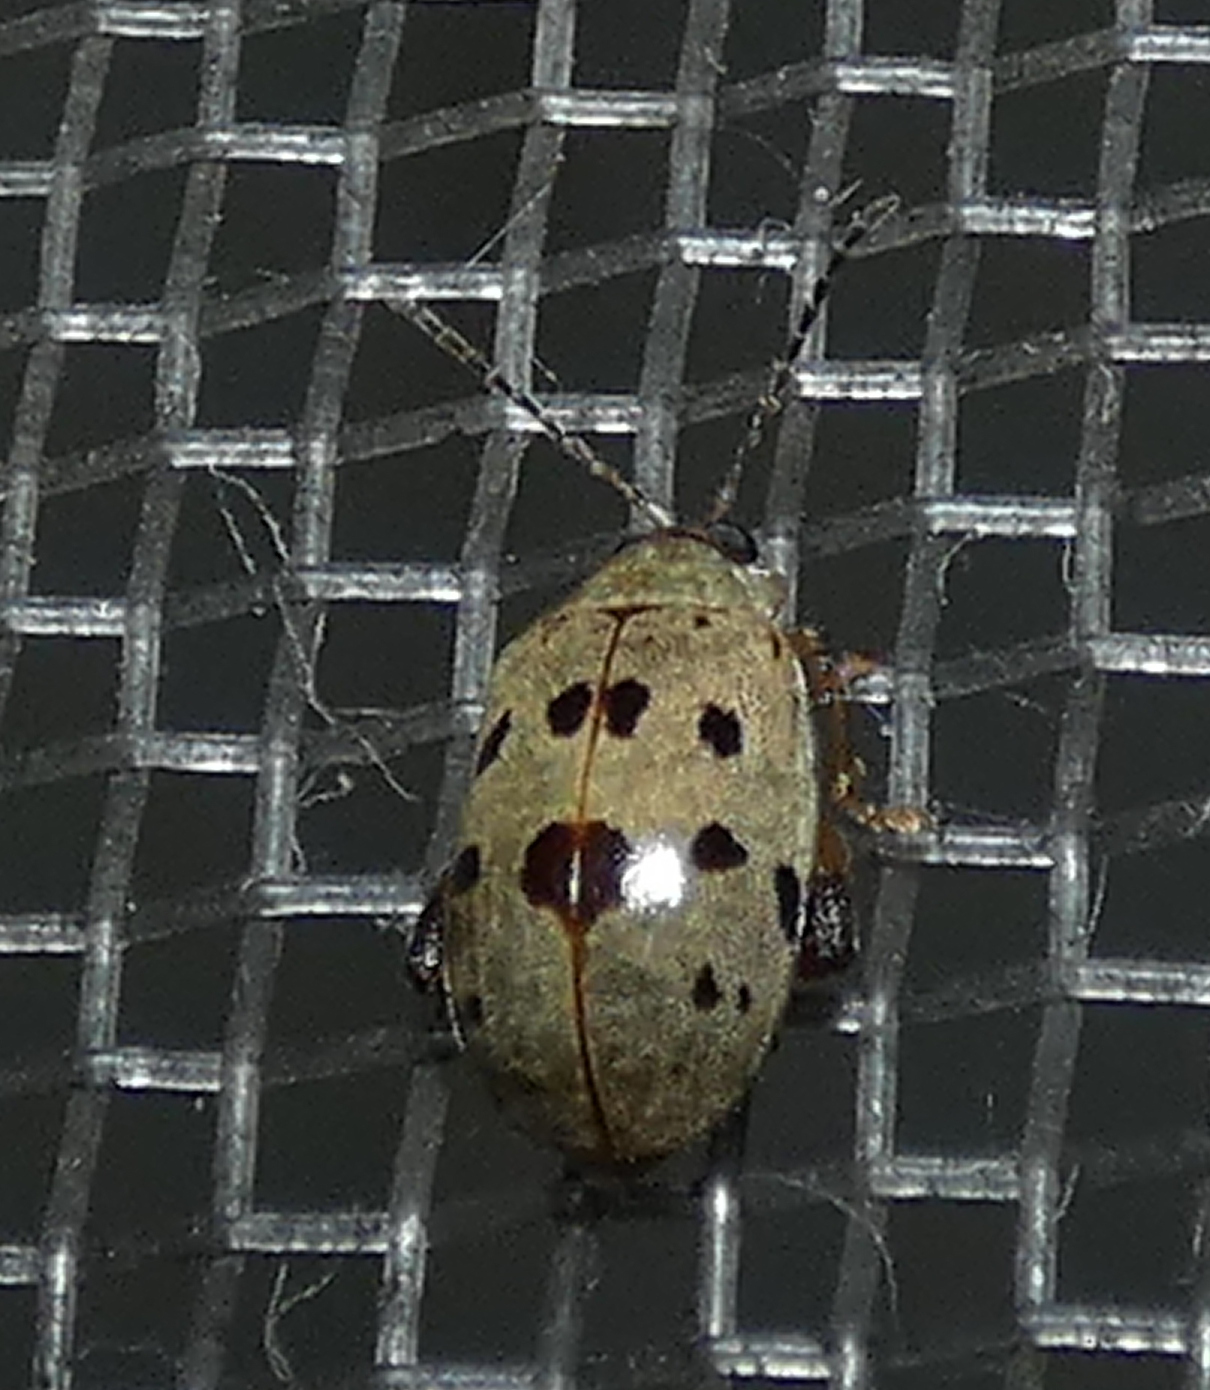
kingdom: Animalia
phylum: Arthropoda
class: Insecta
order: Coleoptera
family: Chrysomelidae
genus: Alagoasa
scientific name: Alagoasa
